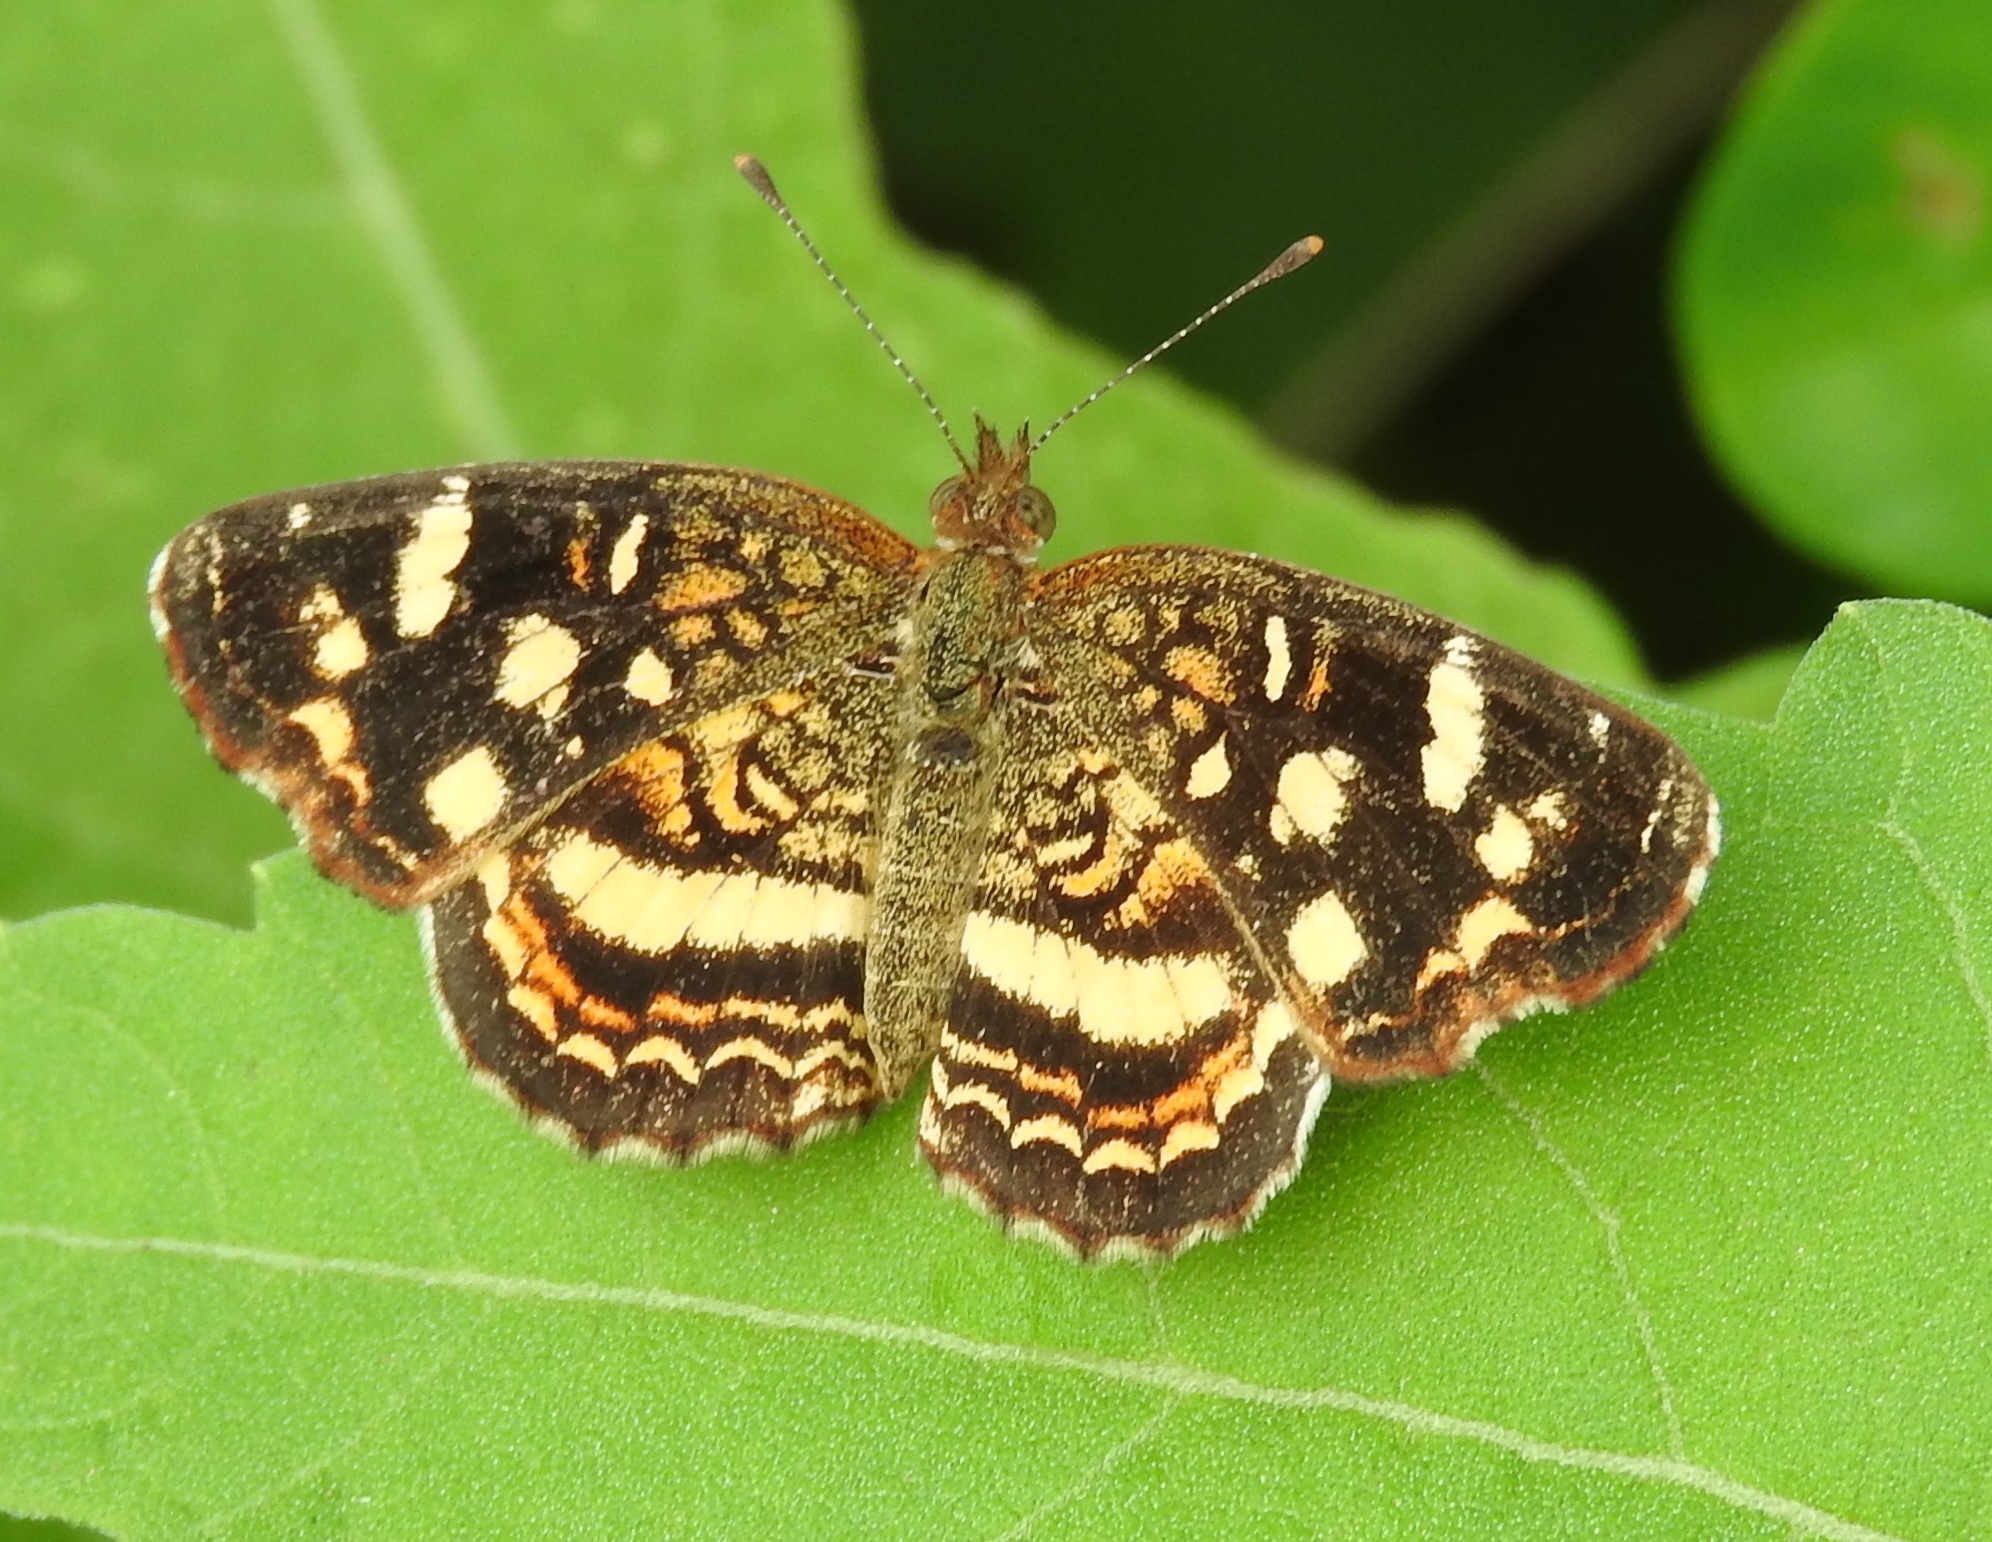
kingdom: Animalia
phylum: Arthropoda
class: Insecta
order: Lepidoptera
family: Nymphalidae
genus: Anthanassa
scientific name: Anthanassa tulcis
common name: Pale-banded crescent
